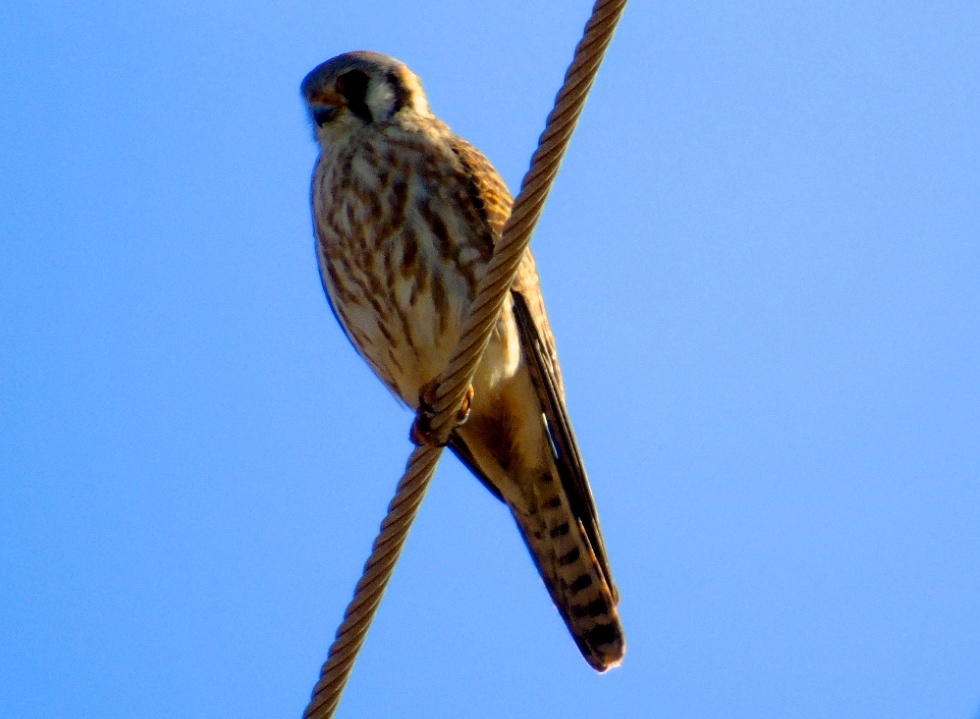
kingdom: Animalia
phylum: Chordata
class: Aves
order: Falconiformes
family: Falconidae
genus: Falco
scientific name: Falco sparverius
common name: American kestrel
